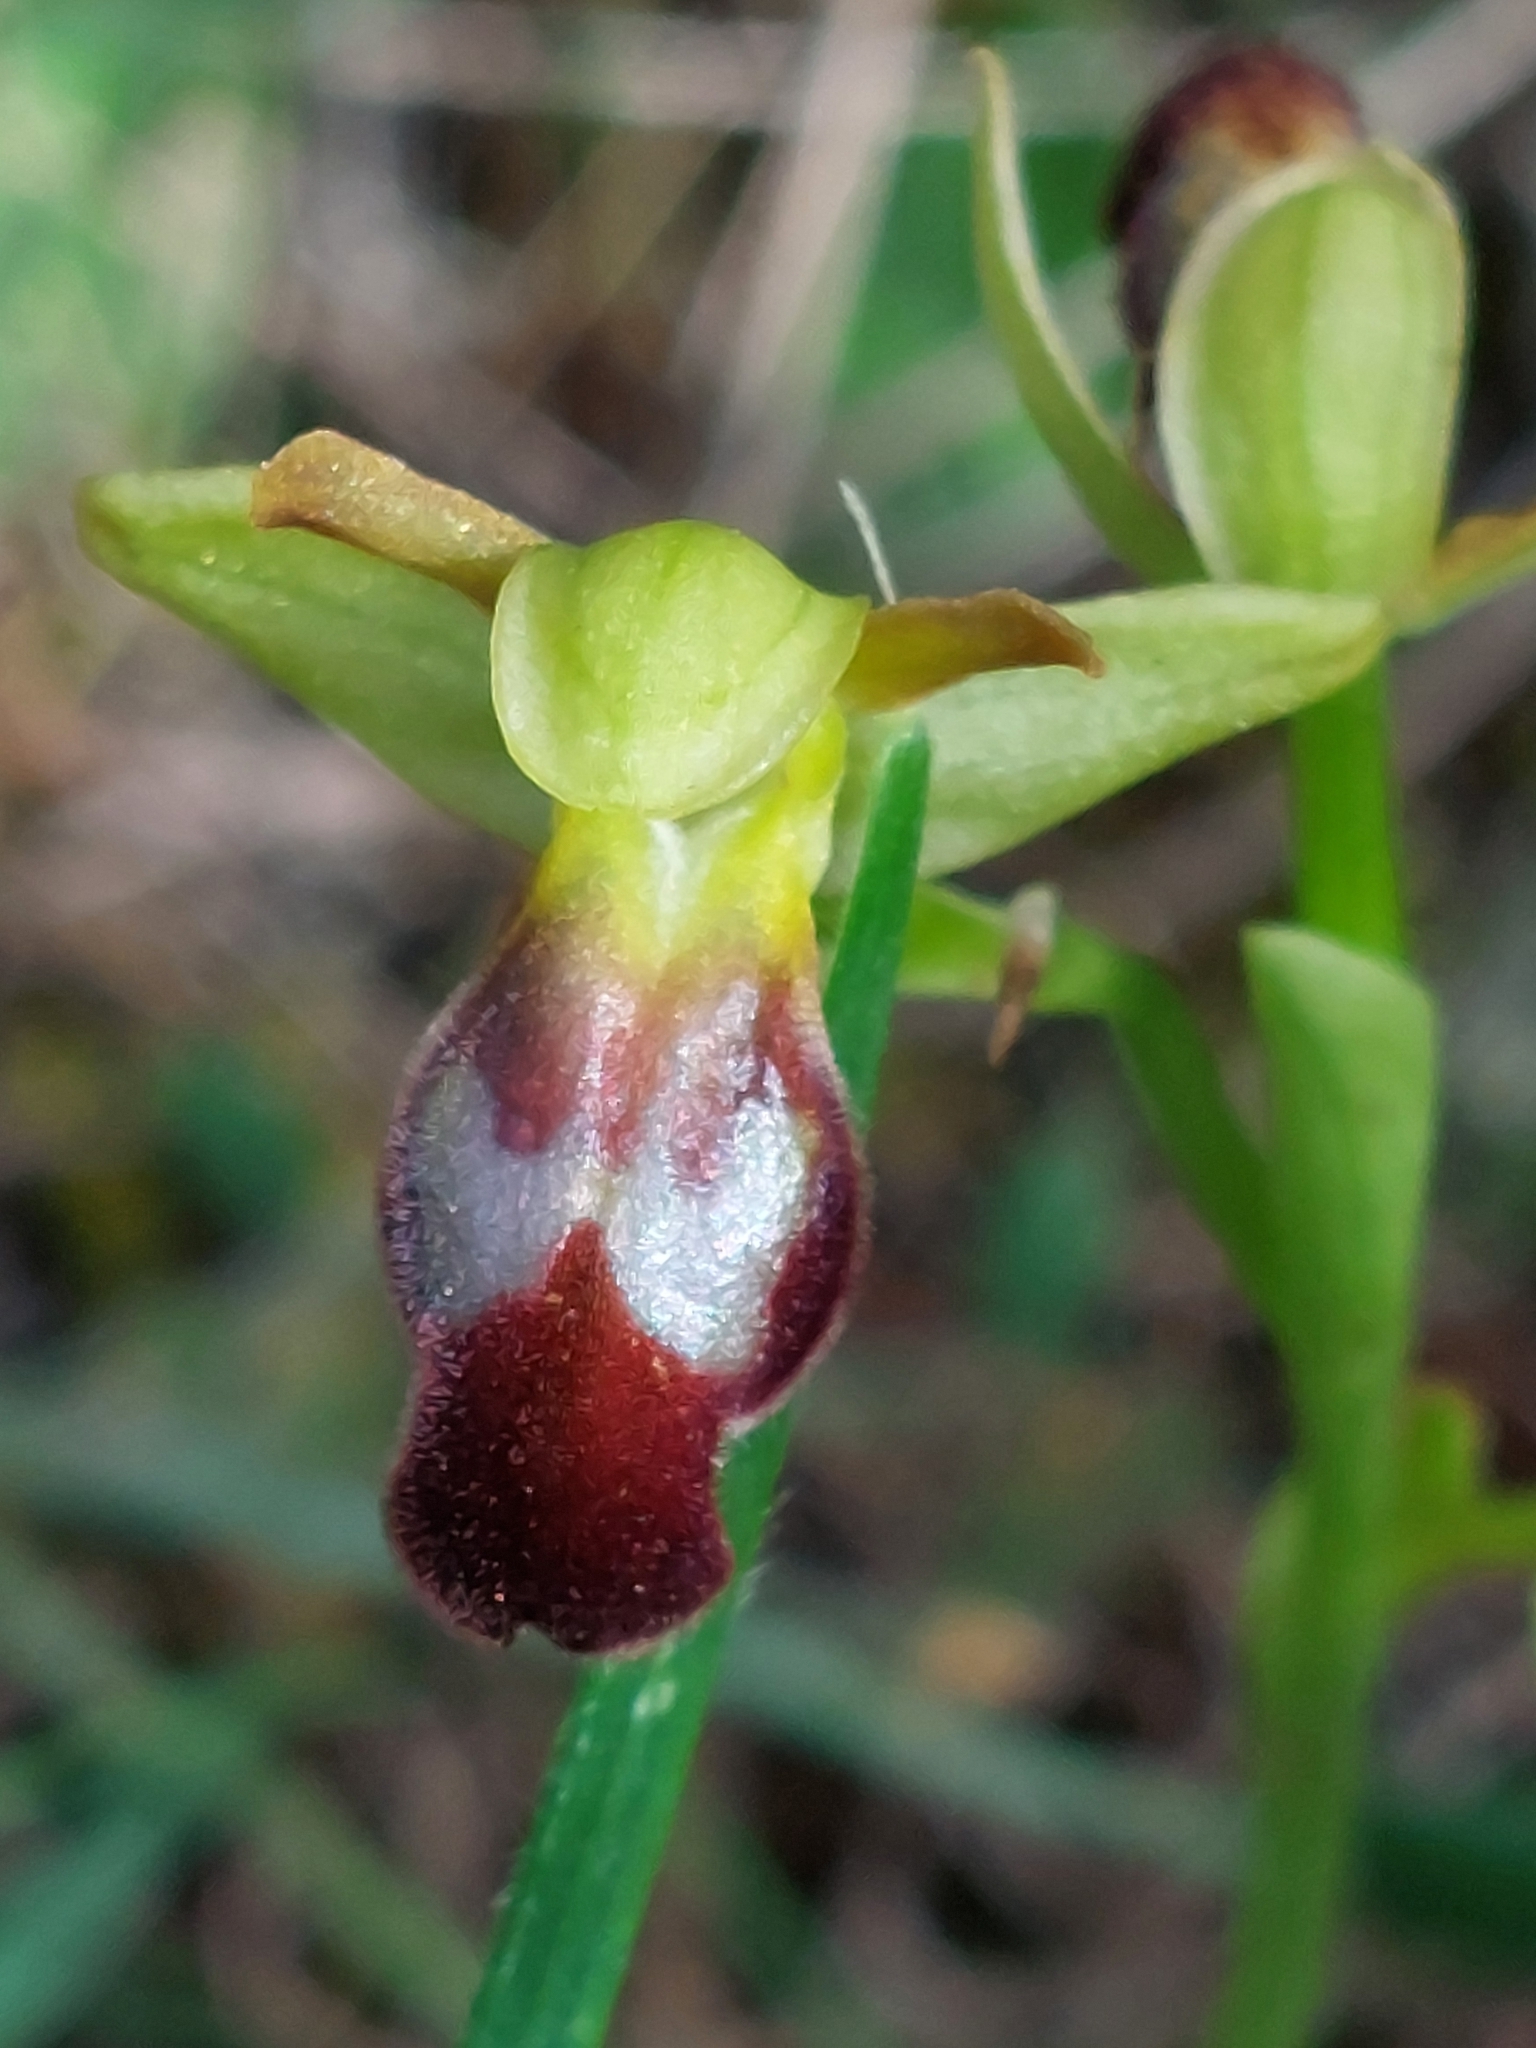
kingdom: Plantae
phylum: Tracheophyta
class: Liliopsida
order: Asparagales
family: Orchidaceae
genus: Ophrys
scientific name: Ophrys fusca
